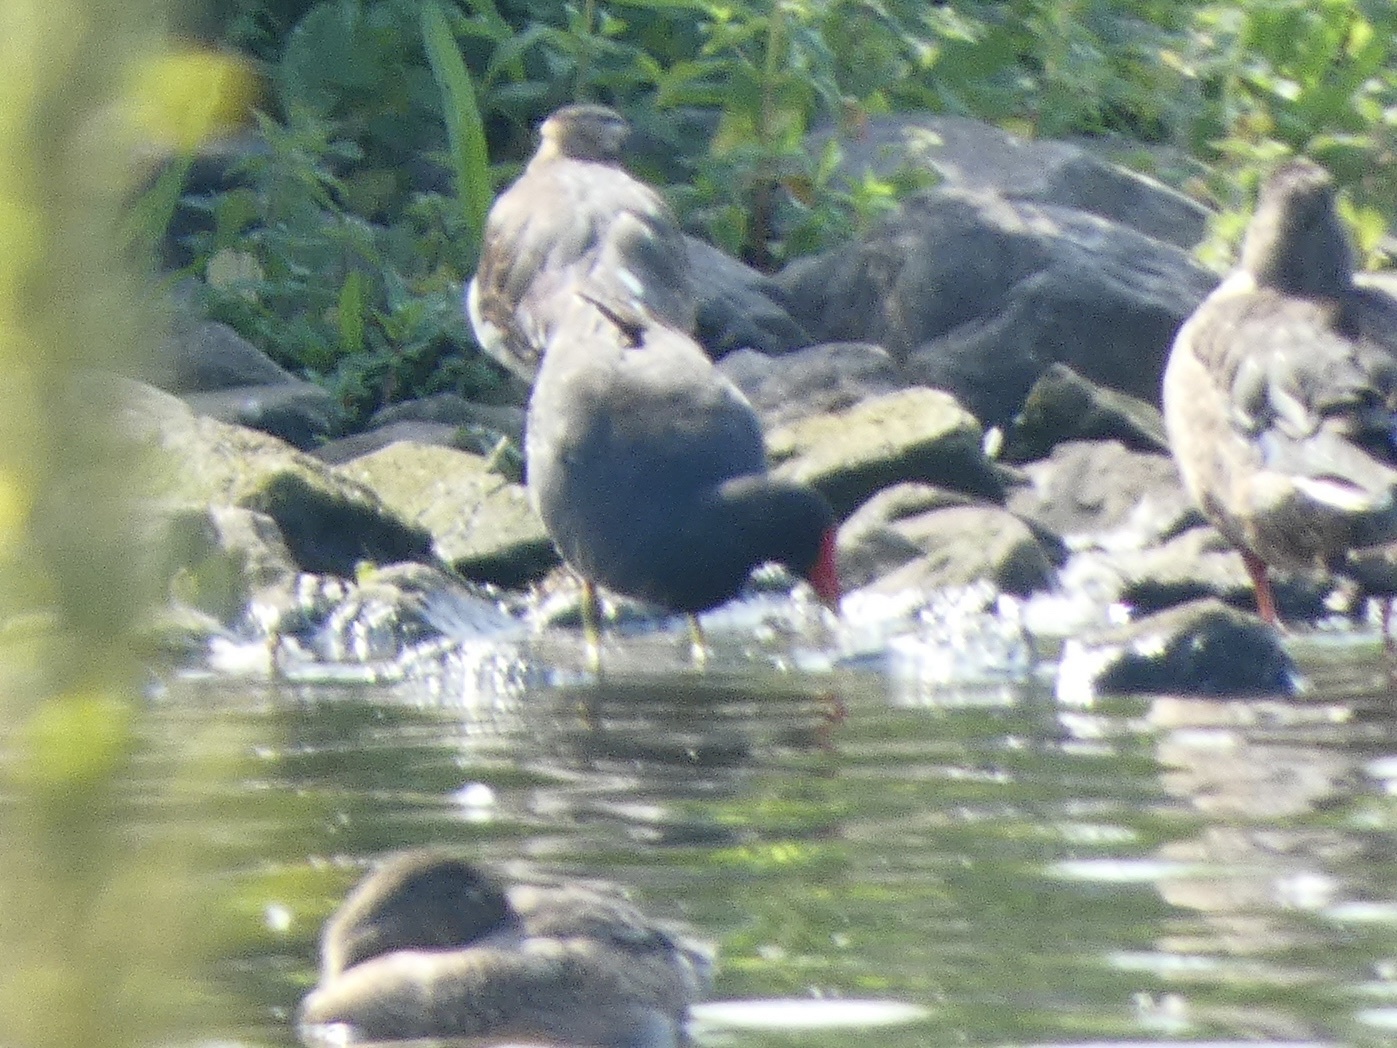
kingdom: Animalia
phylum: Chordata
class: Aves
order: Gruiformes
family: Rallidae
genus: Gallinula
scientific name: Gallinula chloropus
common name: Common moorhen
